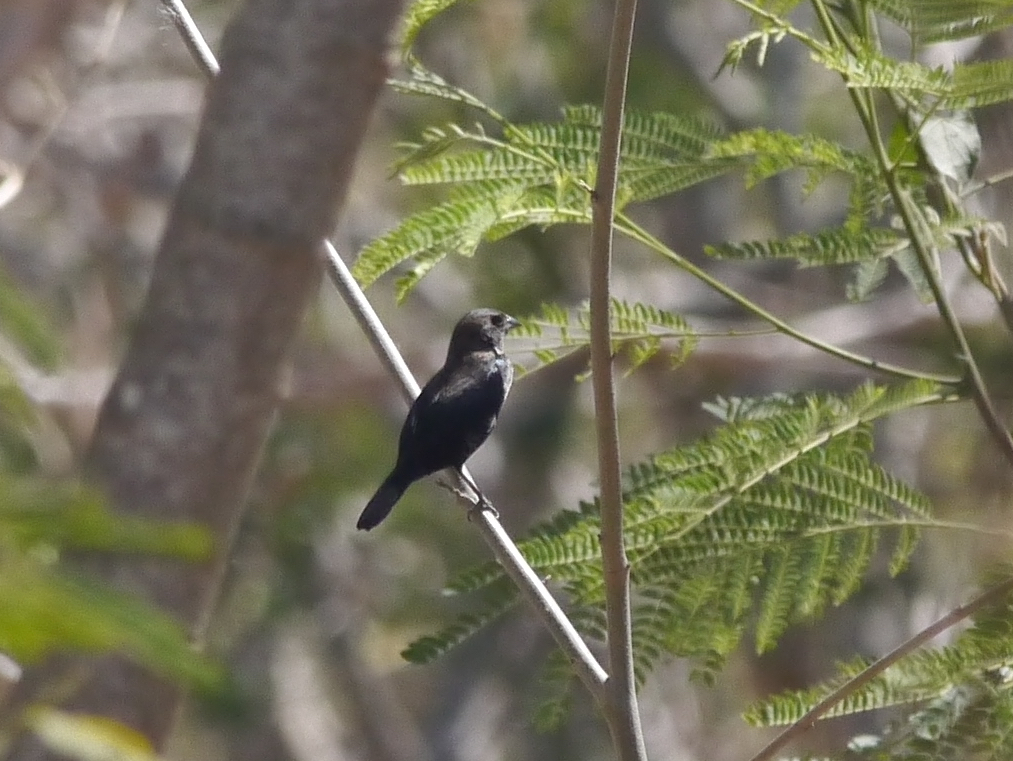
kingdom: Animalia
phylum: Chordata
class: Aves
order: Passeriformes
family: Thraupidae
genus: Volatinia
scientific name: Volatinia jacarina
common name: Blue-black grassquit
